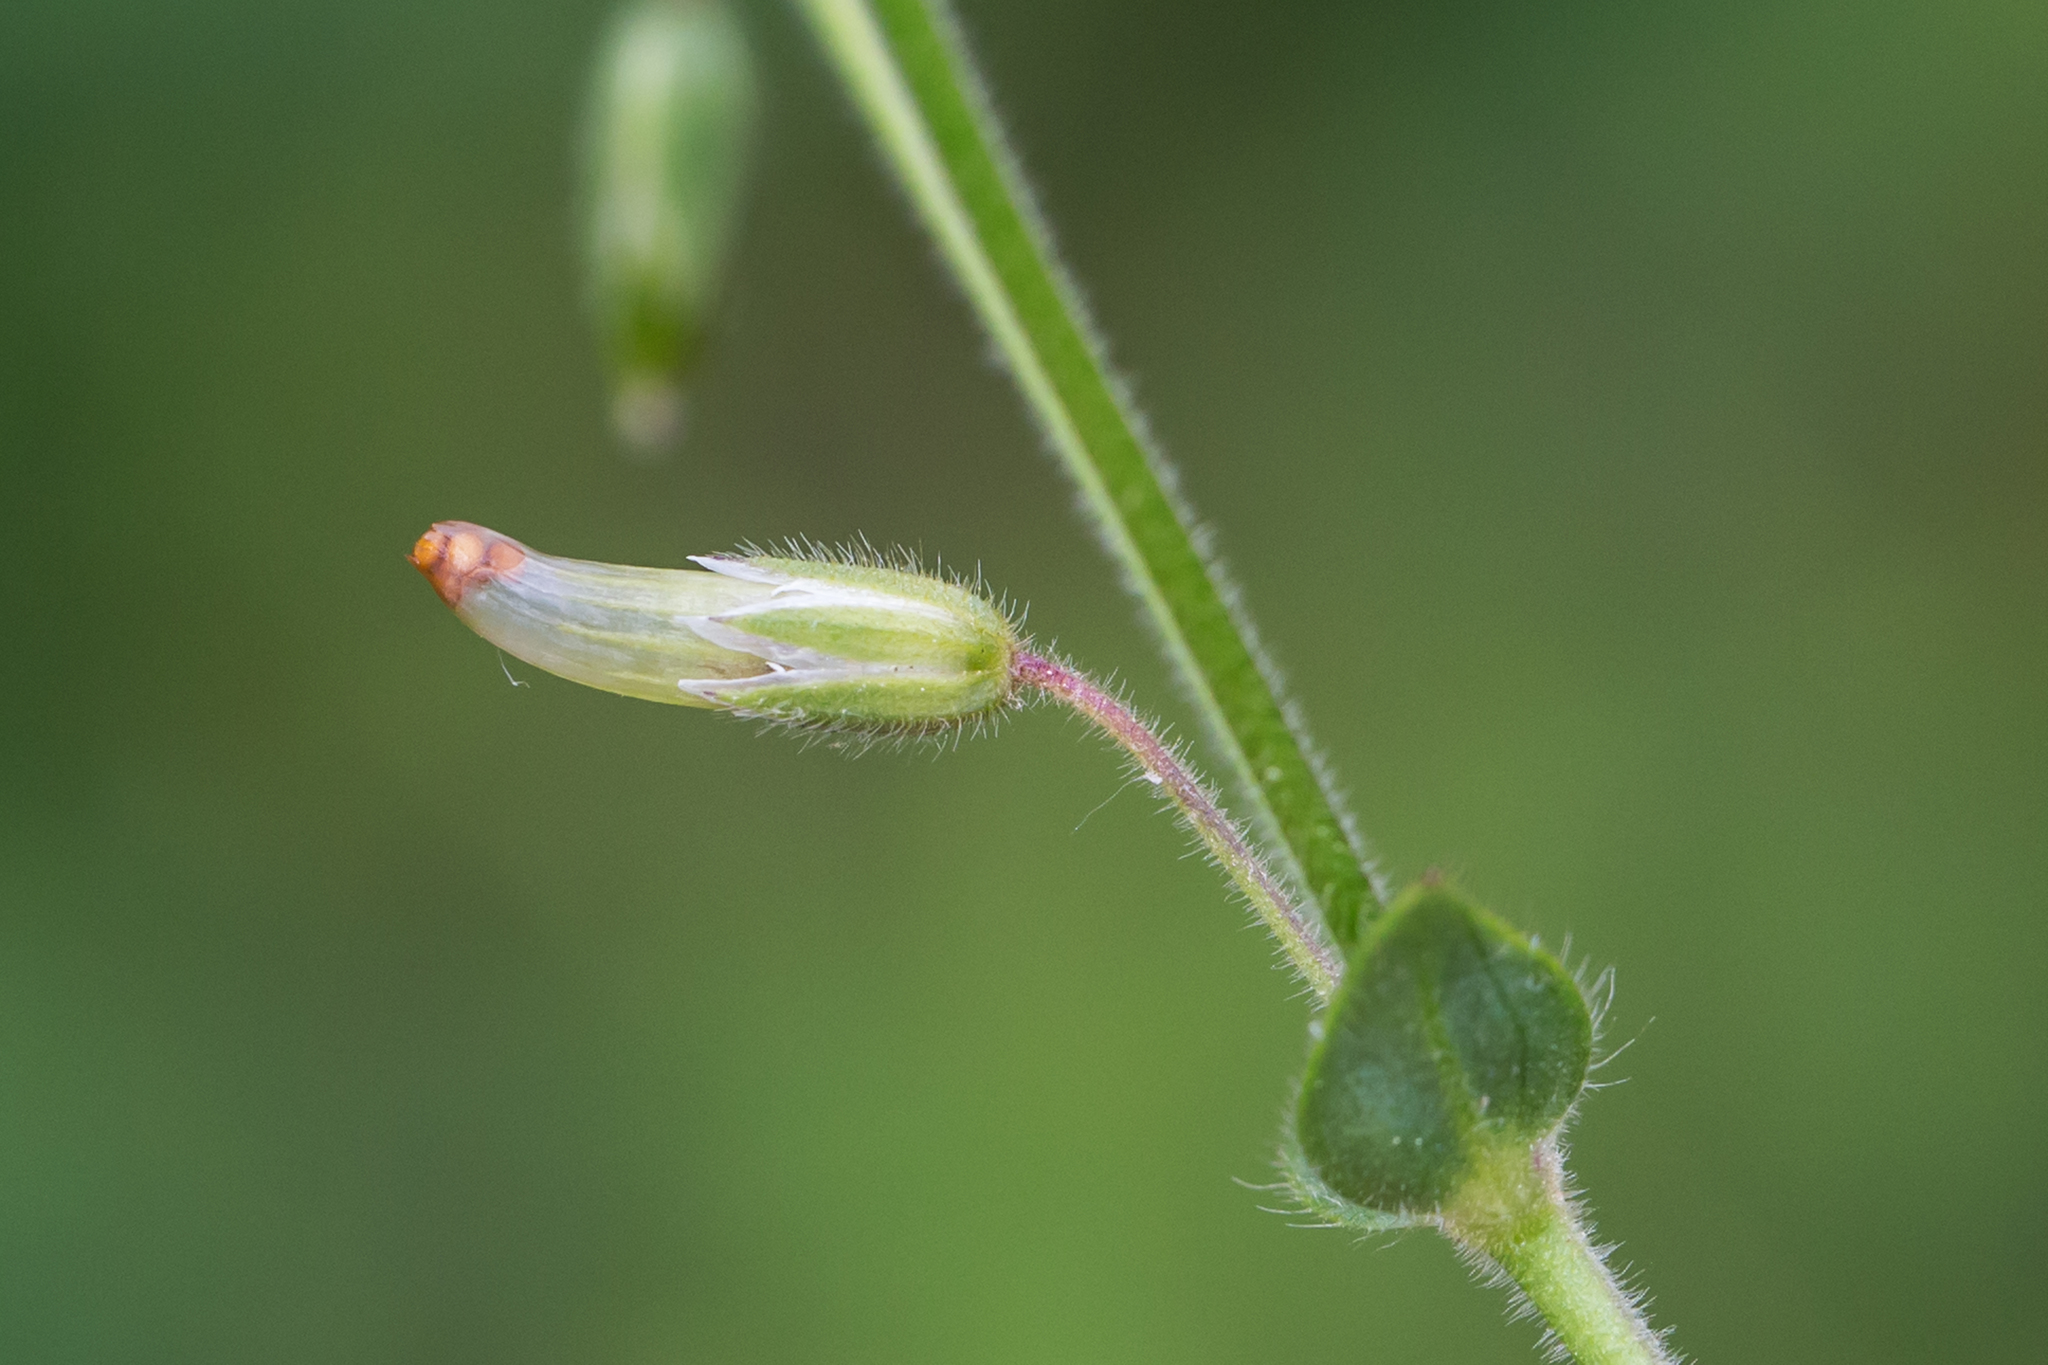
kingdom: Plantae
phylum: Tracheophyta
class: Magnoliopsida
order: Caryophyllales
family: Caryophyllaceae
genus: Cerastium
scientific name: Cerastium fontanum
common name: Common mouse-ear
